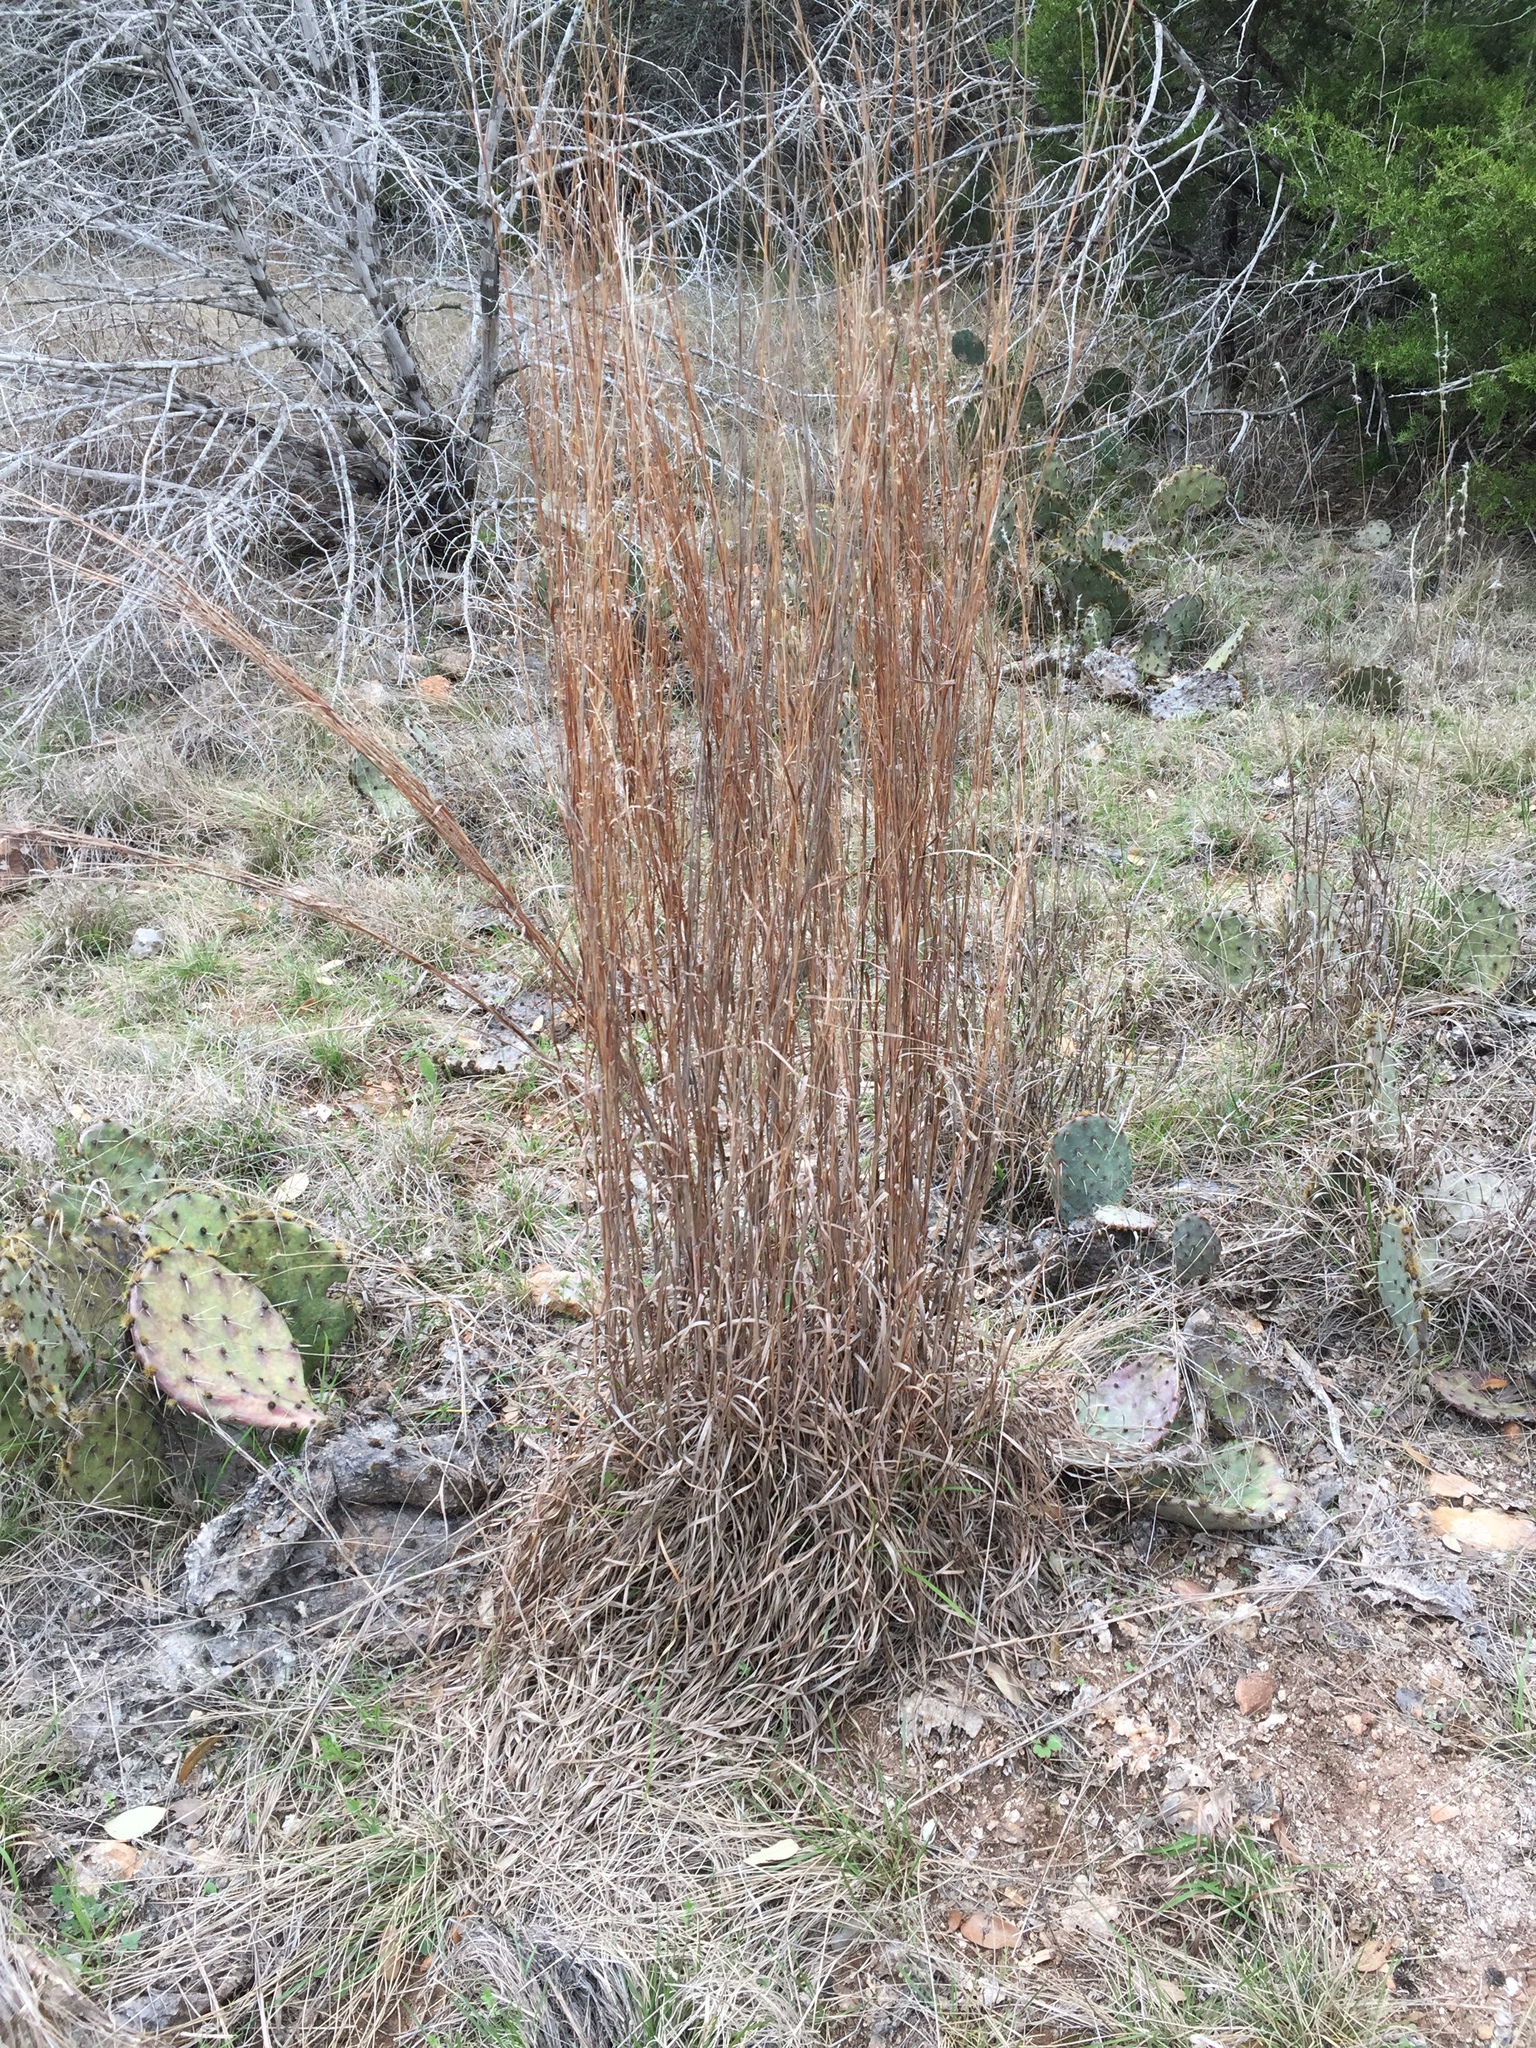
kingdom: Plantae
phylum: Tracheophyta
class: Liliopsida
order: Poales
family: Poaceae
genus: Schizachyrium
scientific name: Schizachyrium scoparium
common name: Little bluestem
